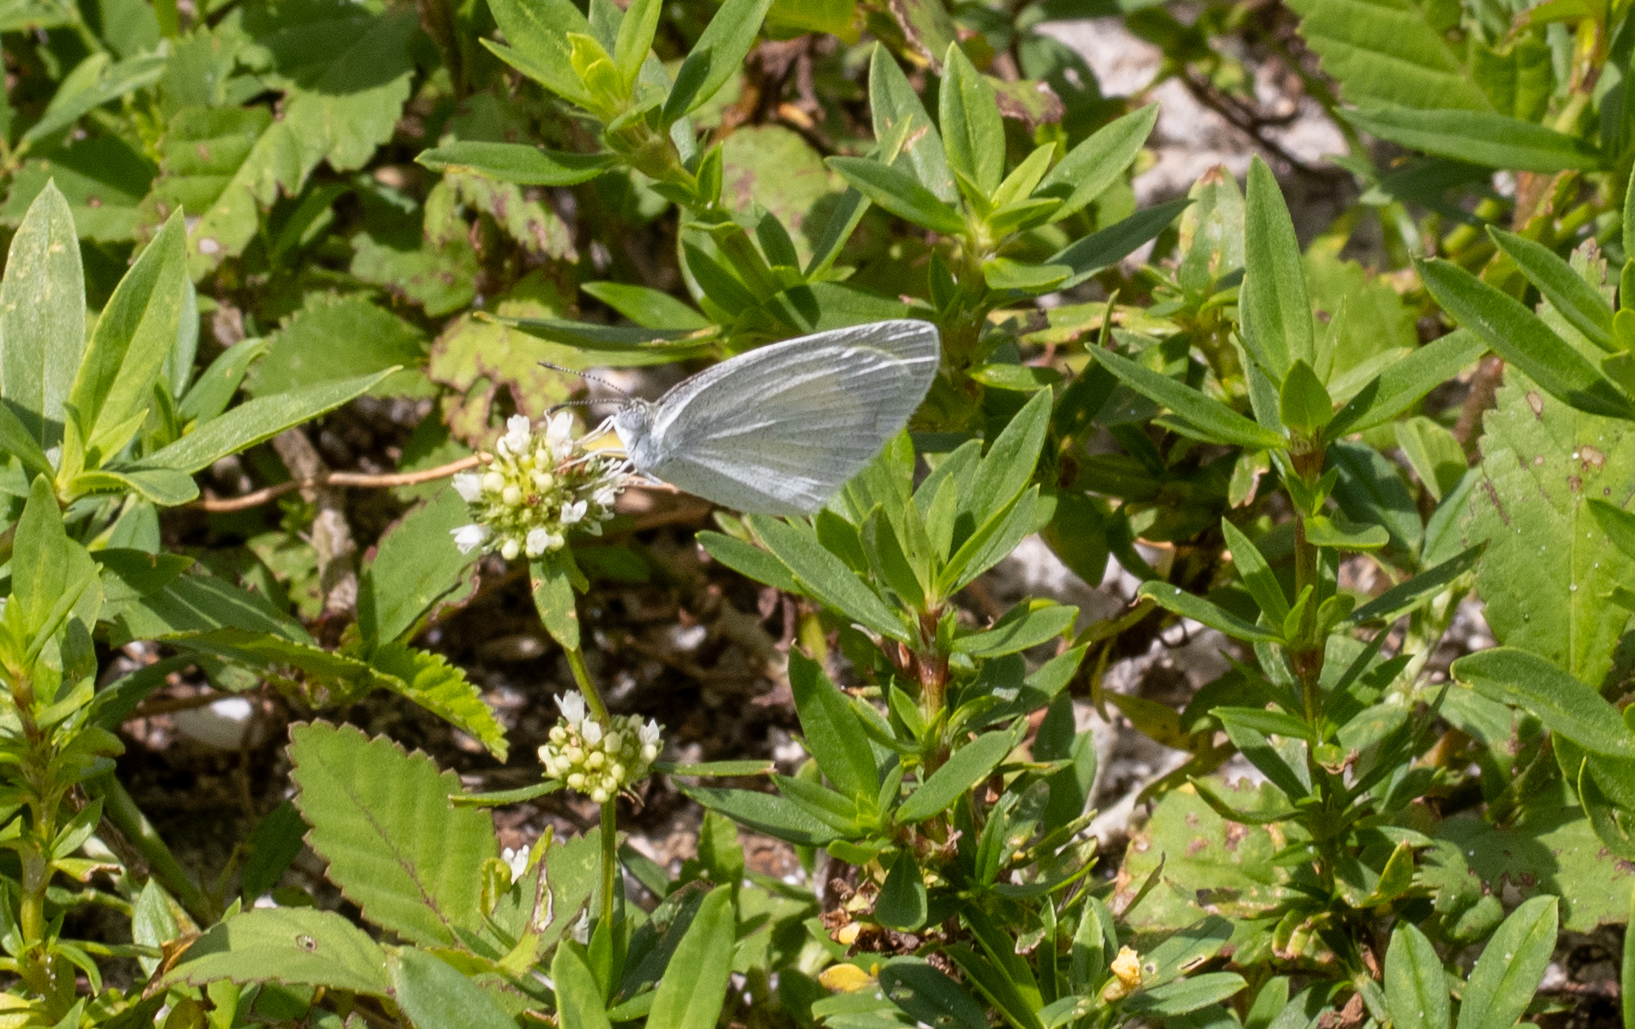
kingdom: Animalia
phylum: Arthropoda
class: Insecta
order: Lepidoptera
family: Pieridae
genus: Eurema
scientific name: Eurema daira
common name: Barred sulphur
